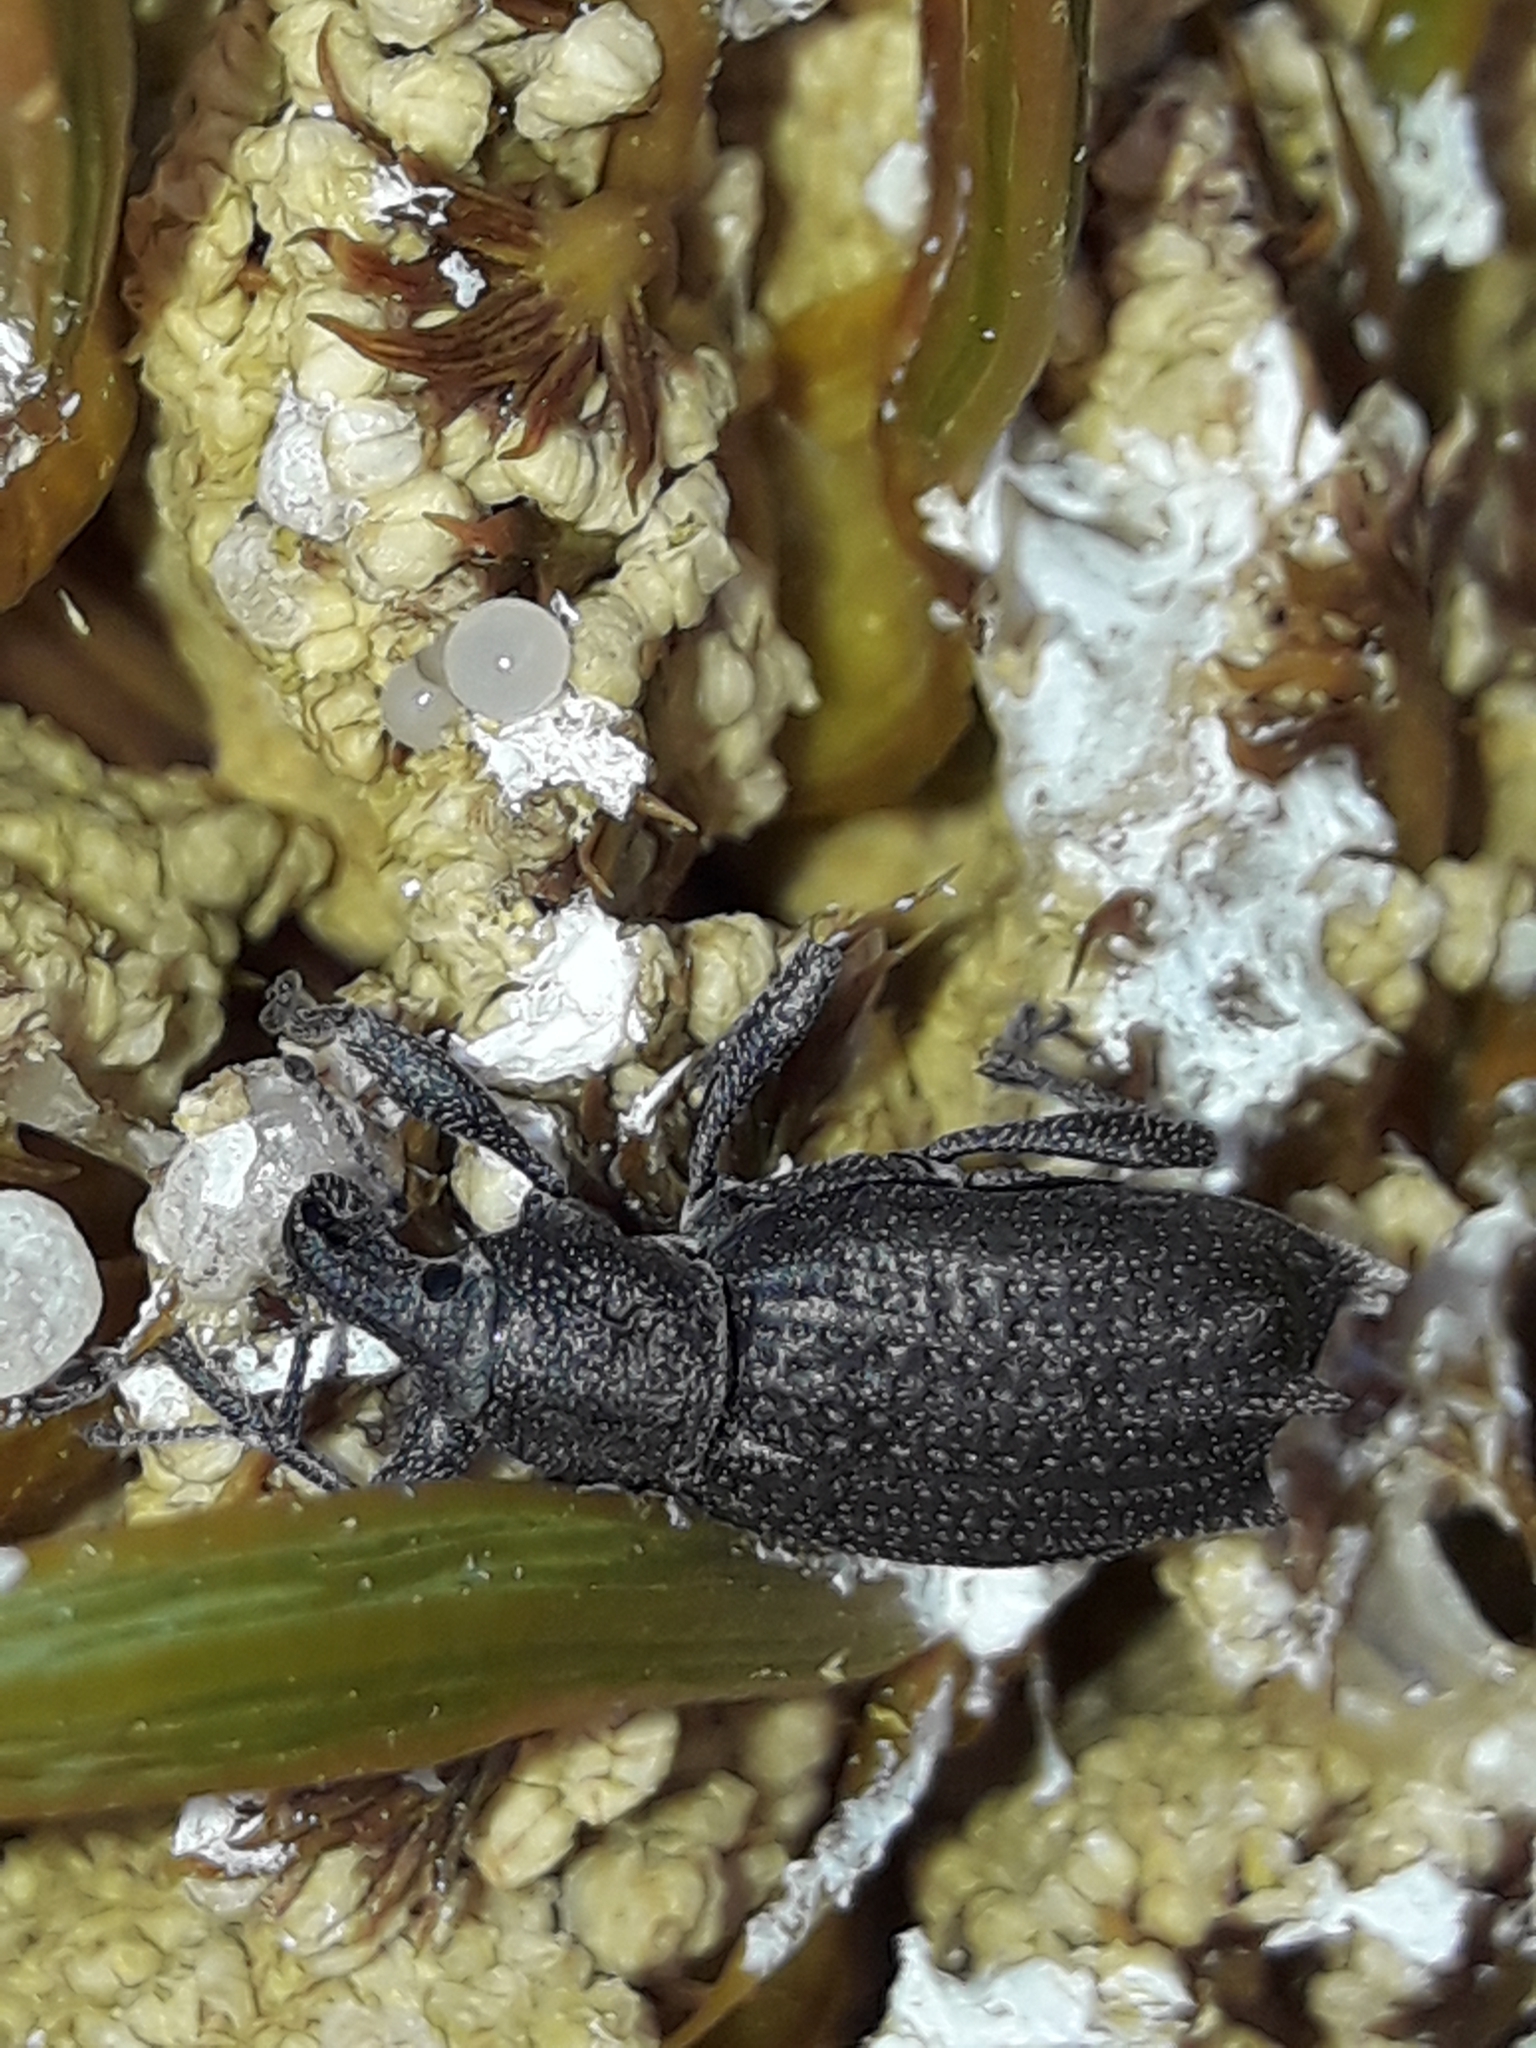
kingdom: Animalia
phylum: Arthropoda
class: Insecta
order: Coleoptera
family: Curculionidae
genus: Inophloeus
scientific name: Inophloeus inuus
